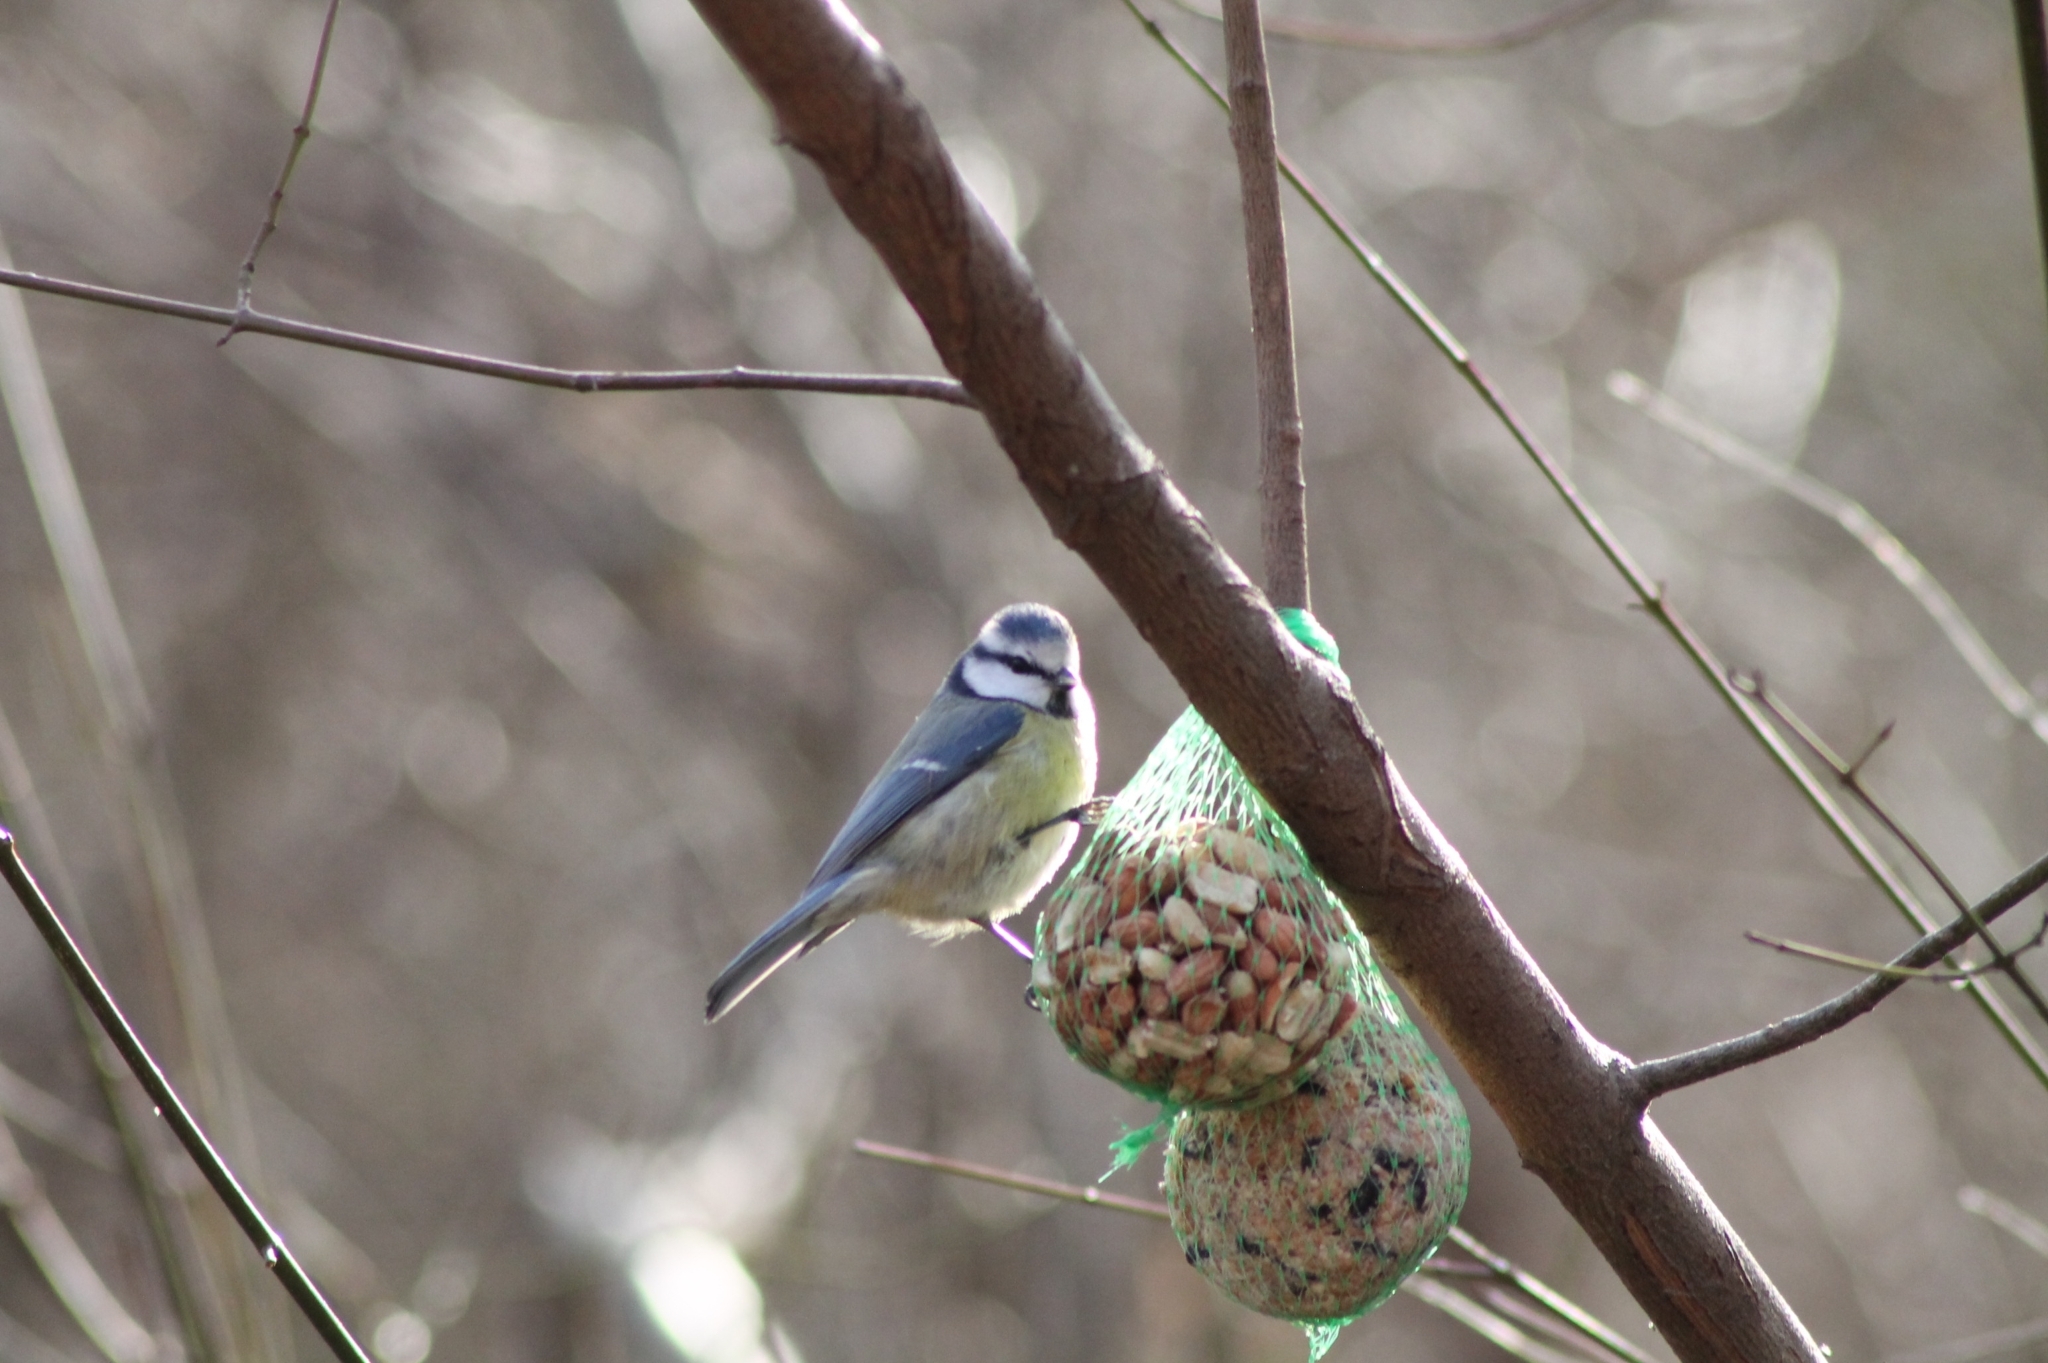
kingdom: Animalia
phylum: Chordata
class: Aves
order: Passeriformes
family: Paridae
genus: Cyanistes
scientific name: Cyanistes caeruleus
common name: Eurasian blue tit
